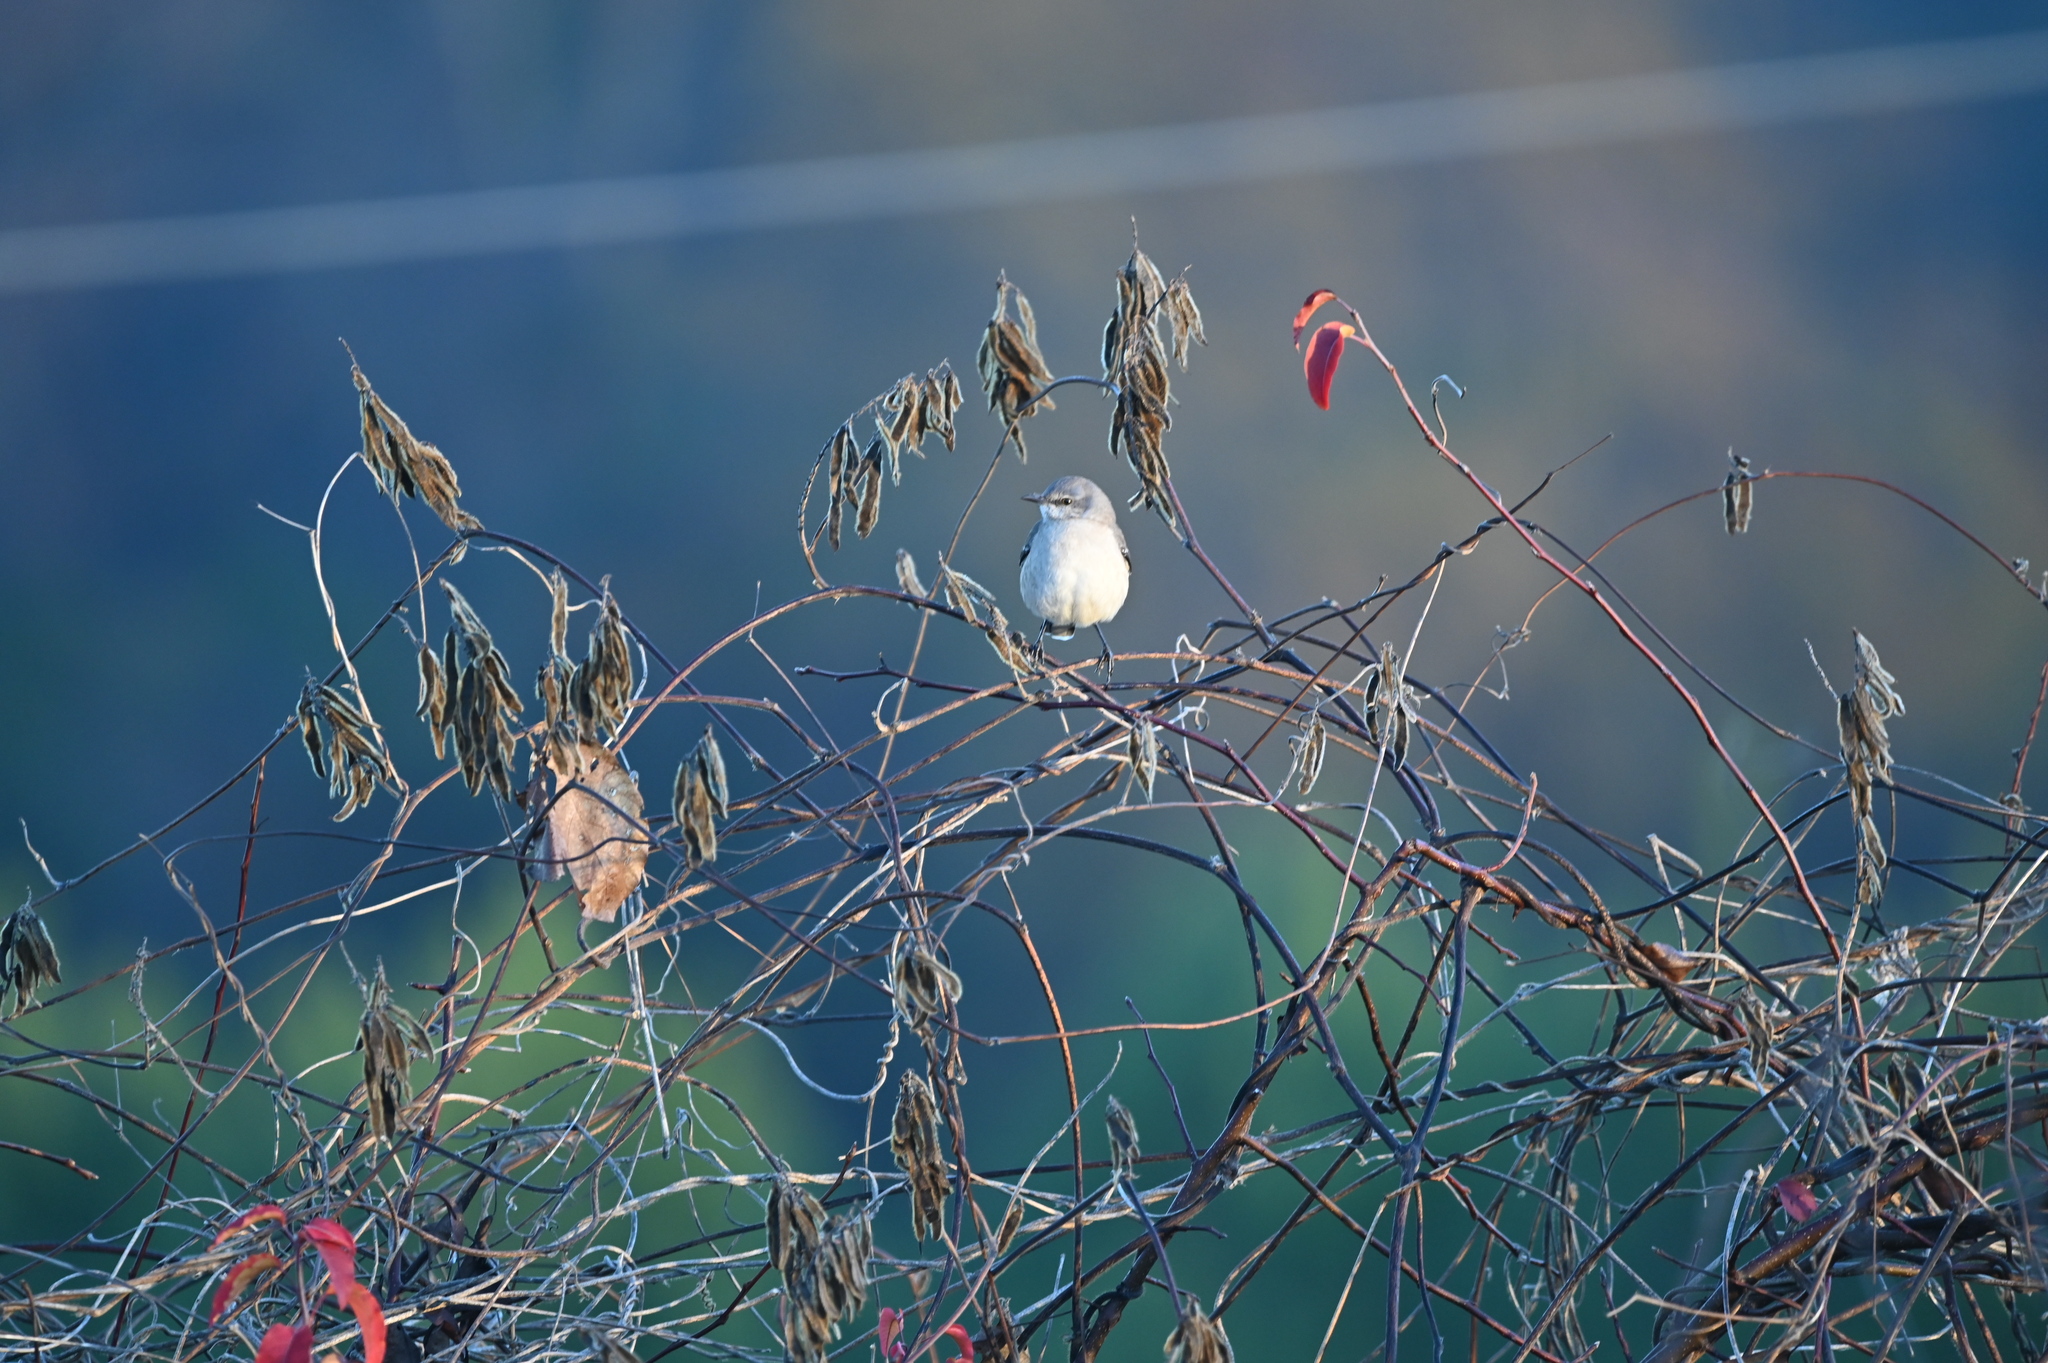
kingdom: Animalia
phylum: Chordata
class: Aves
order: Passeriformes
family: Mimidae
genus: Mimus
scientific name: Mimus polyglottos
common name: Northern mockingbird
